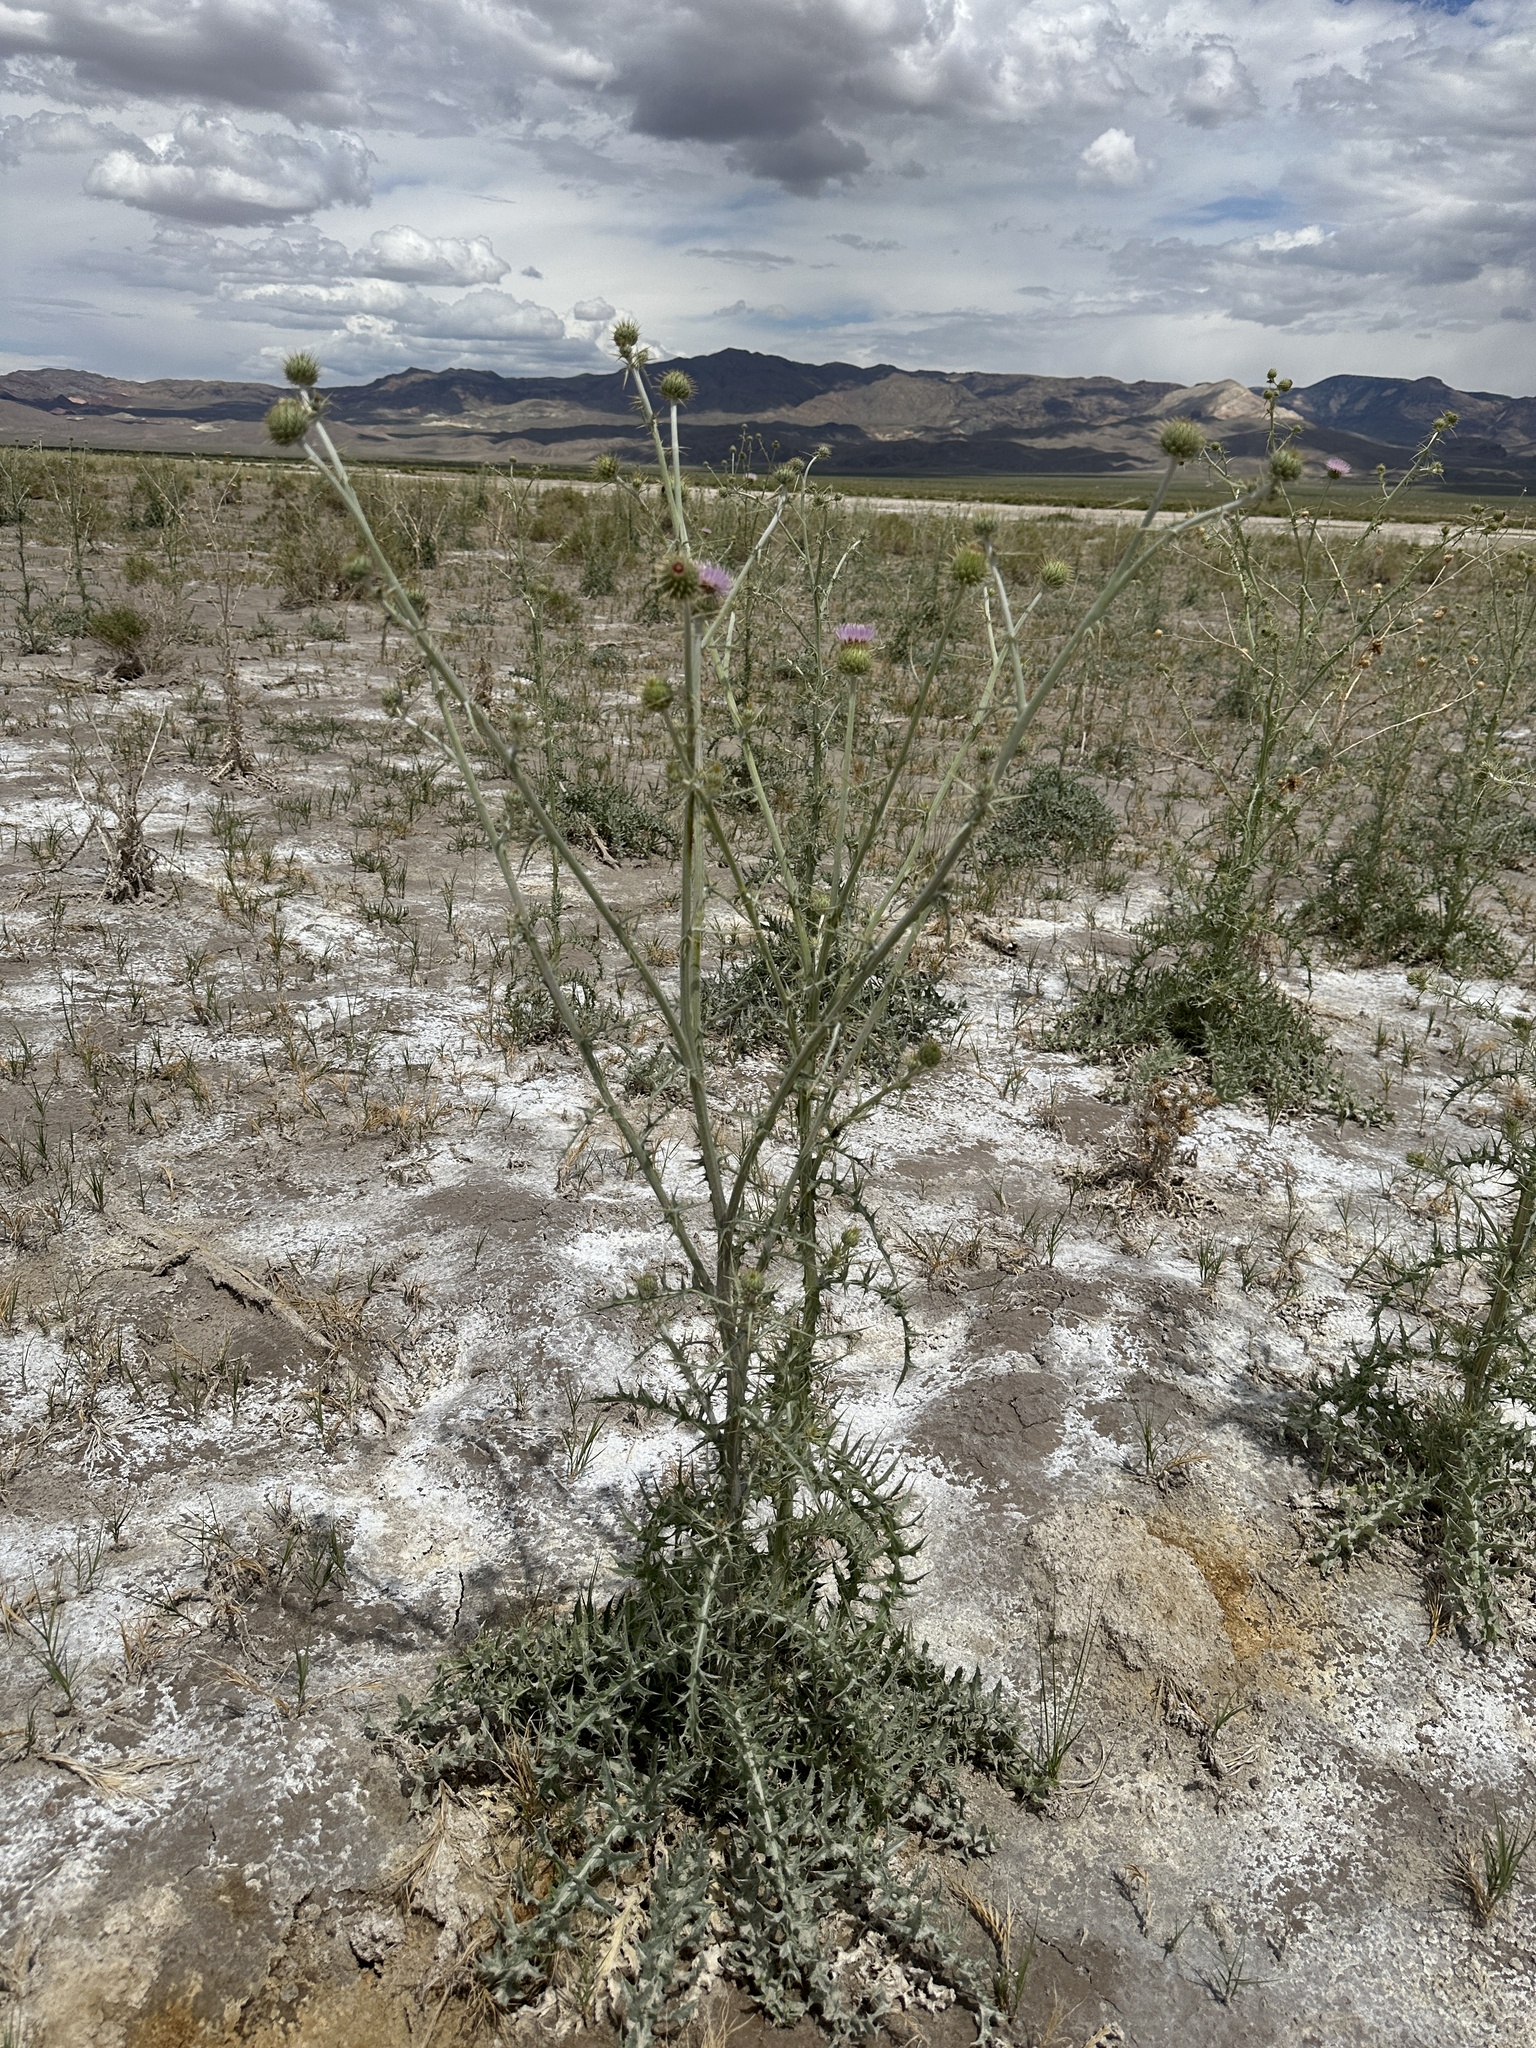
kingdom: Plantae
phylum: Tracheophyta
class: Magnoliopsida
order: Asterales
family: Asteraceae
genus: Cirsium
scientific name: Cirsium mohavense
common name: Mojave thistle
